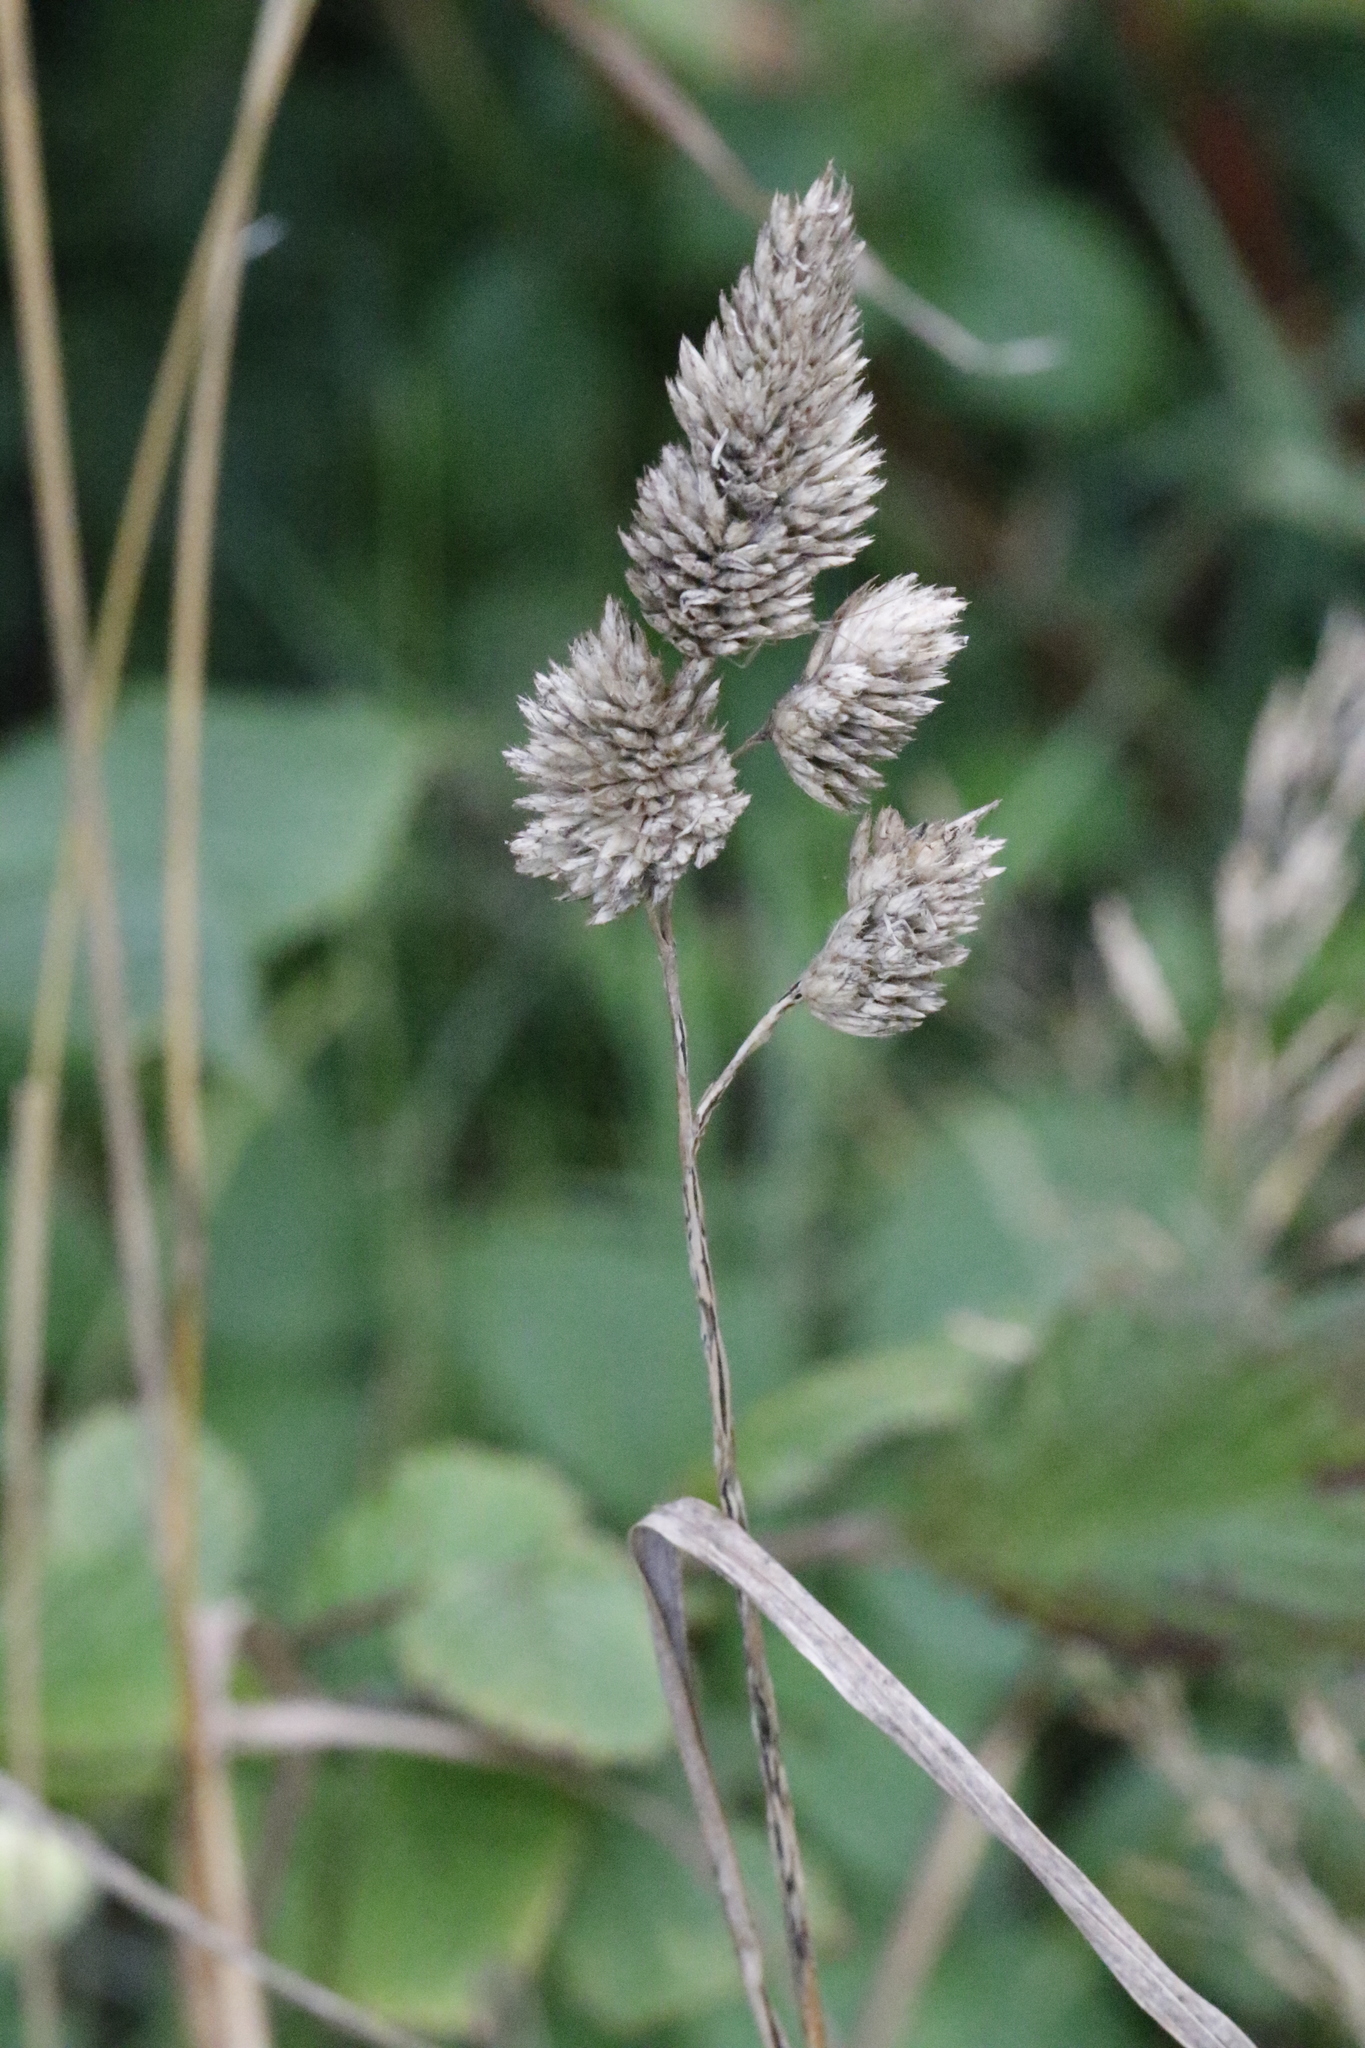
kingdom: Plantae
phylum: Tracheophyta
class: Liliopsida
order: Poales
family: Poaceae
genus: Dactylis
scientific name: Dactylis glomerata
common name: Orchardgrass
